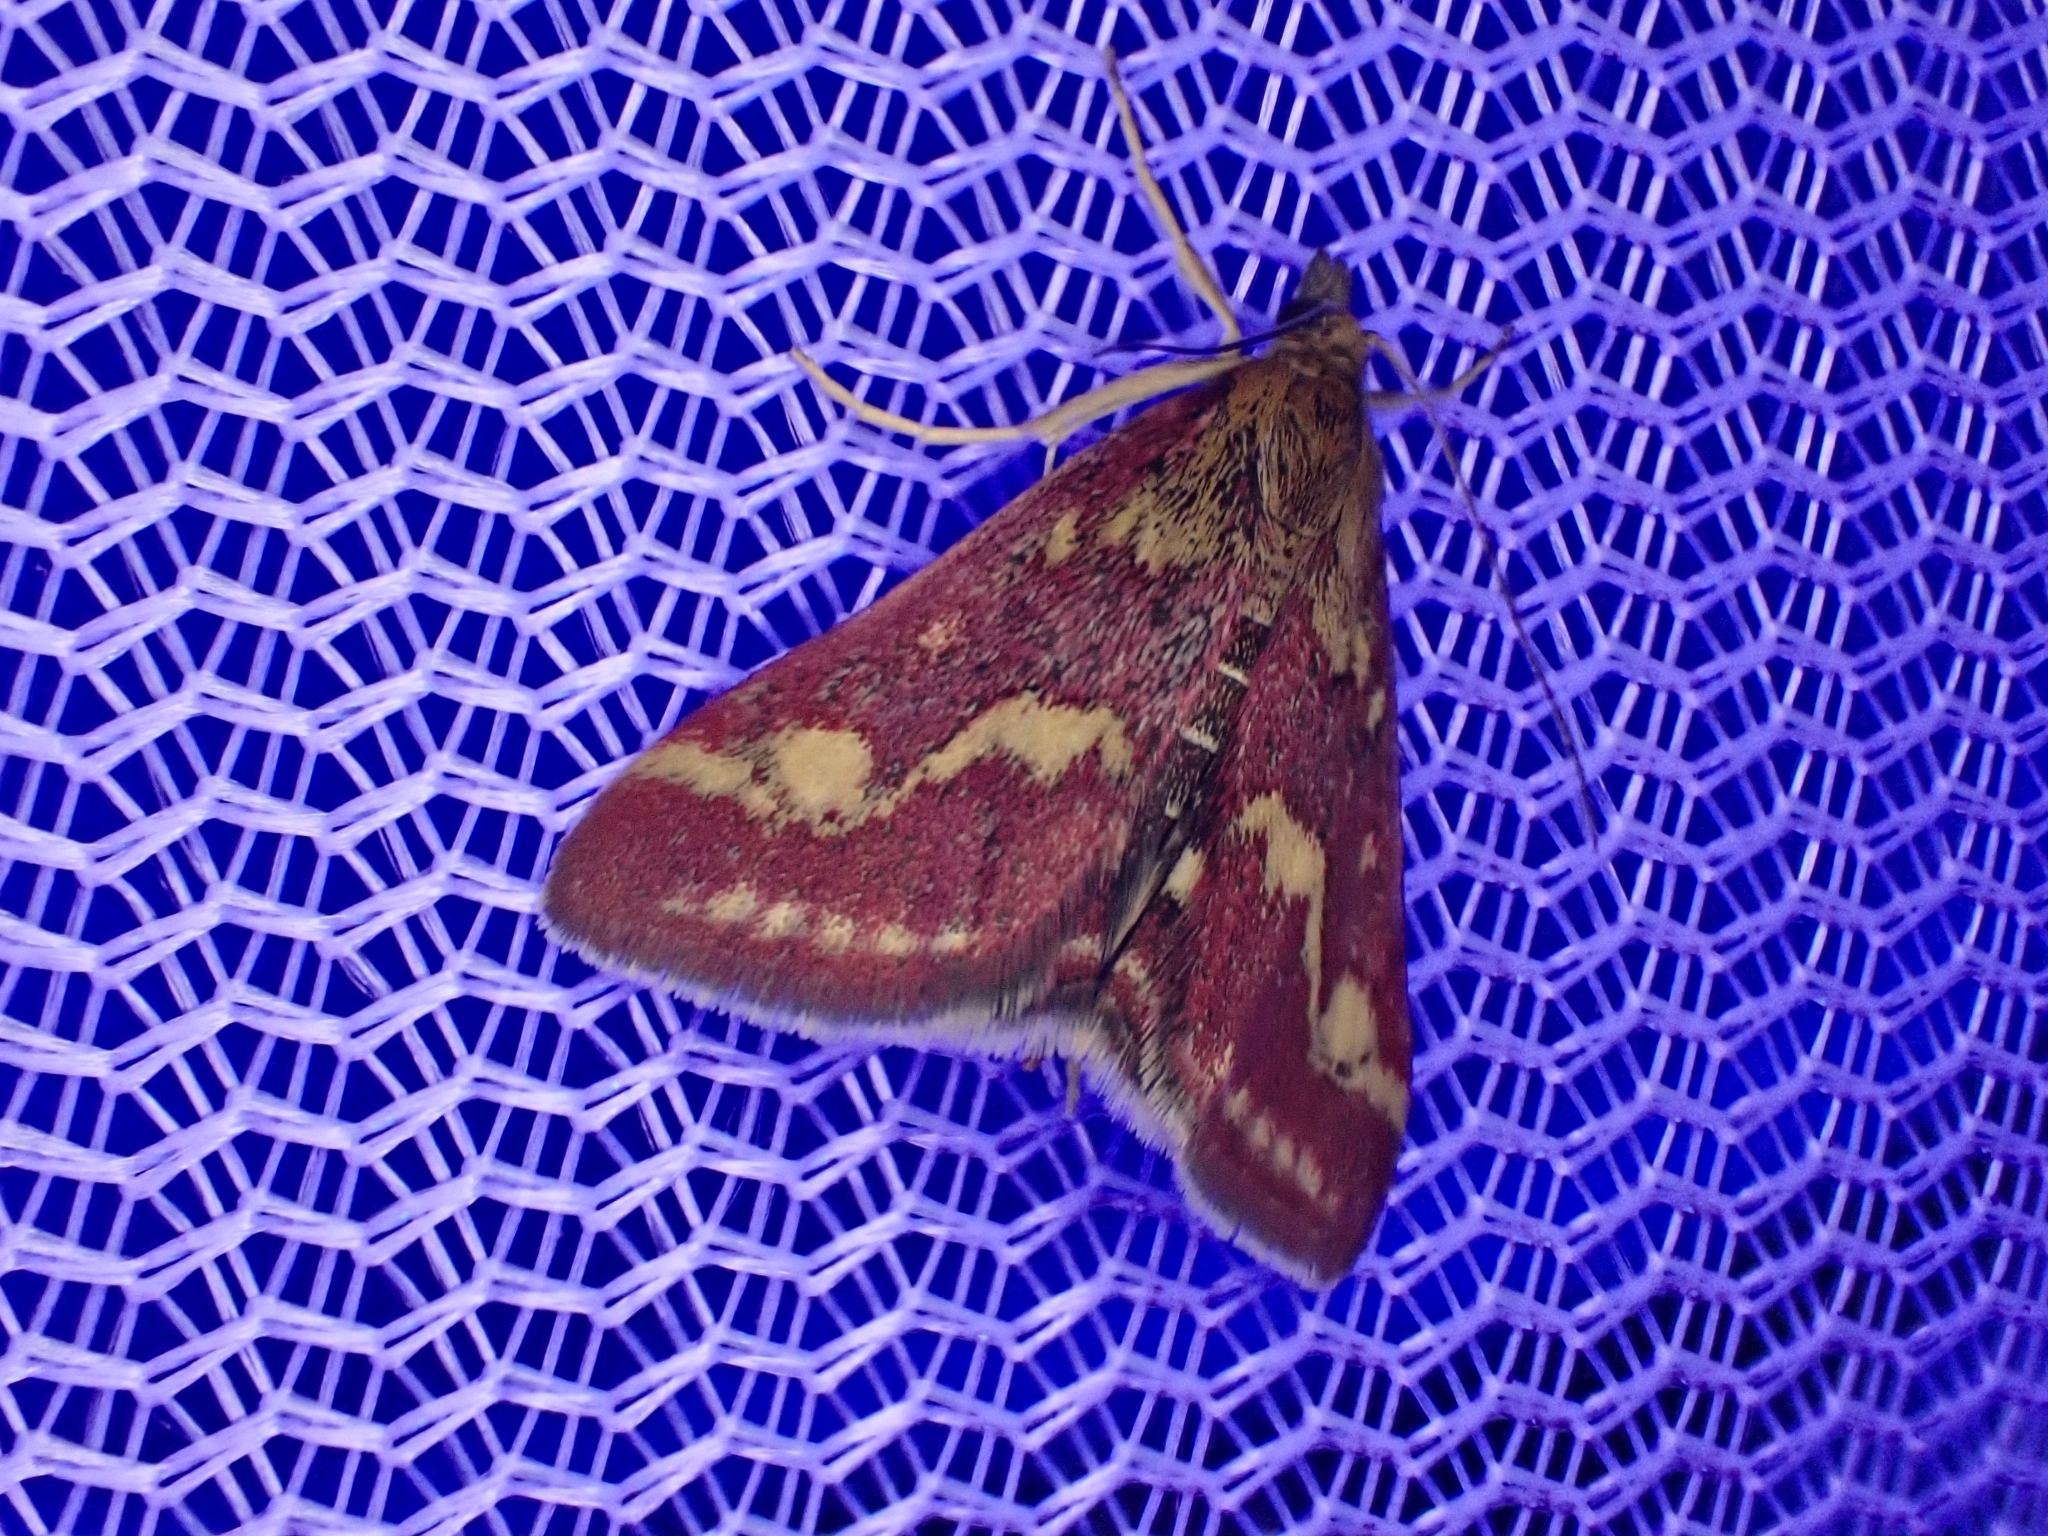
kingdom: Animalia
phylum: Arthropoda
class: Insecta
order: Lepidoptera
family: Crambidae
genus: Pyrausta
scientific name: Pyrausta purpuralis
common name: Common purple & gold
